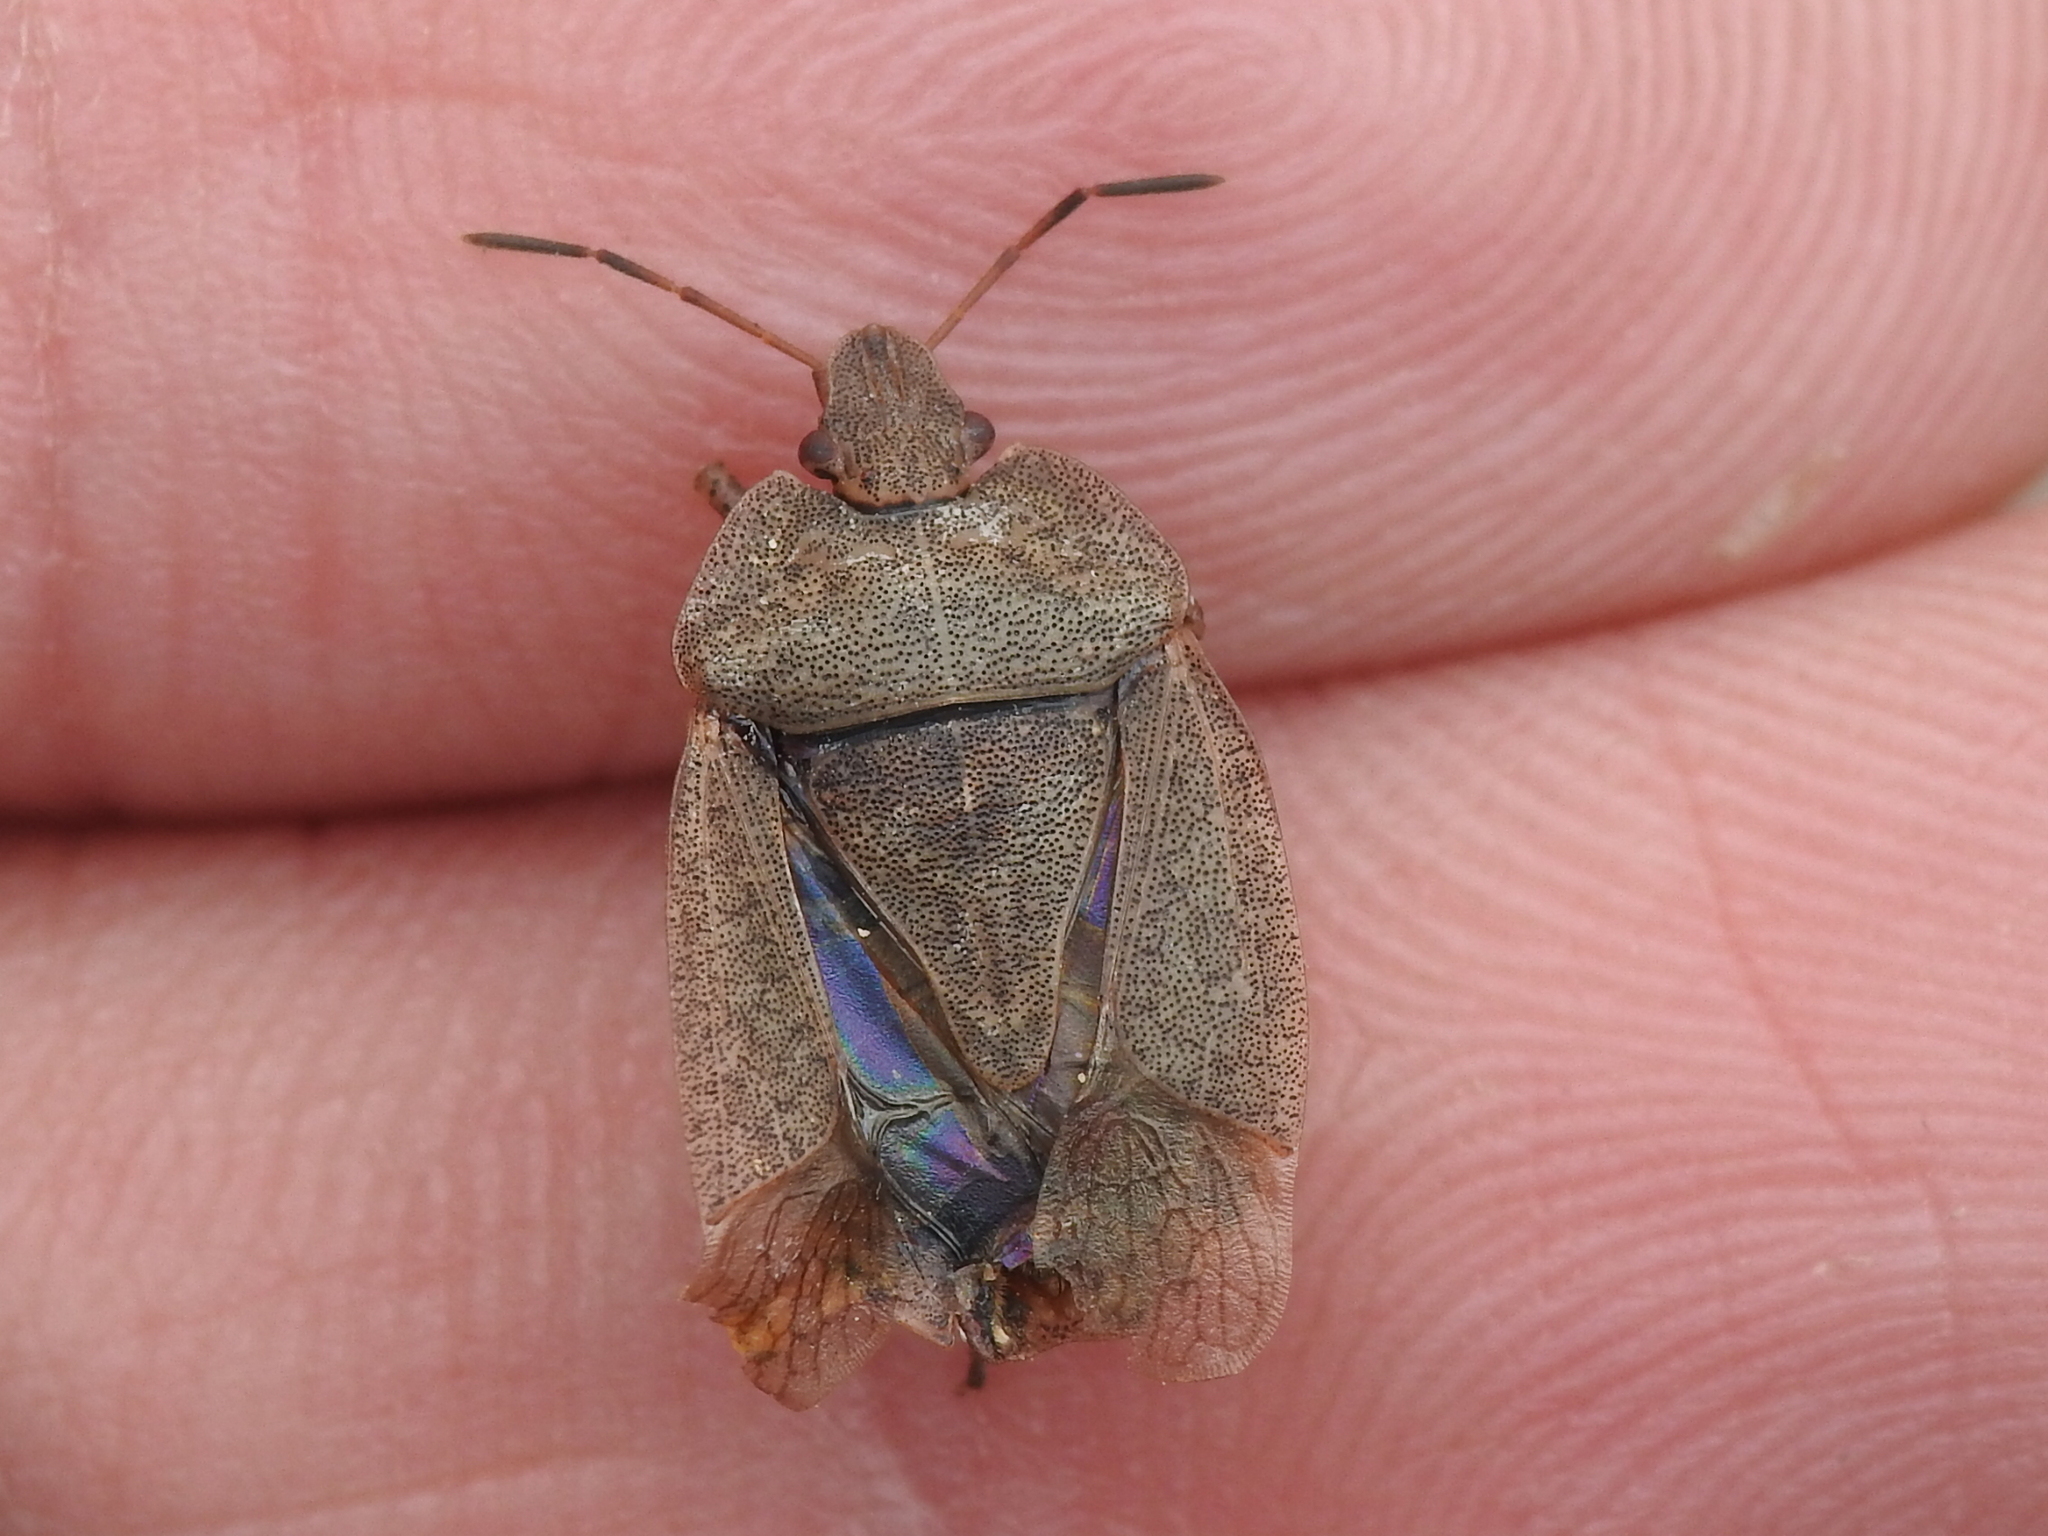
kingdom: Animalia
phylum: Arthropoda
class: Insecta
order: Hemiptera
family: Pentatomidae
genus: Menecles
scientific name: Menecles insertus
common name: Elf shoe stink bug
